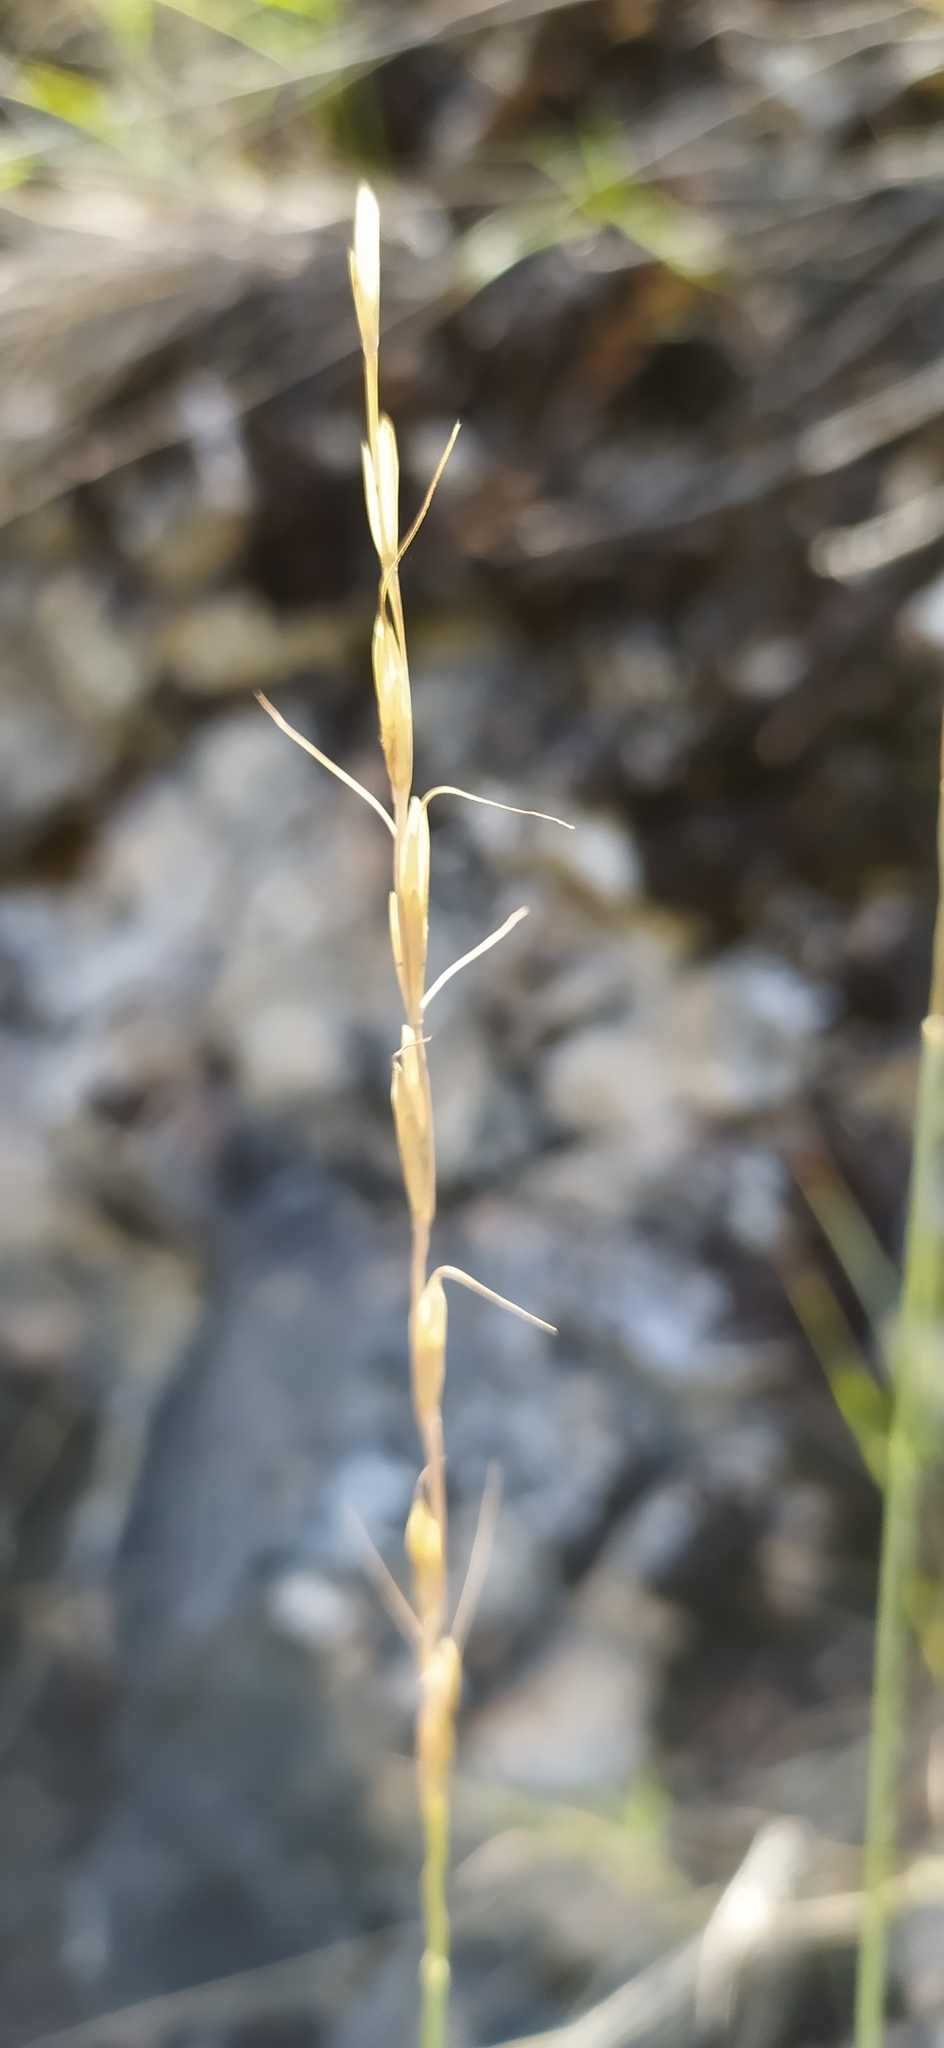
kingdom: Plantae
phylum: Tracheophyta
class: Liliopsida
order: Poales
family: Poaceae
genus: Pseudoroegneria
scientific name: Pseudoroegneria reflexiaristata
